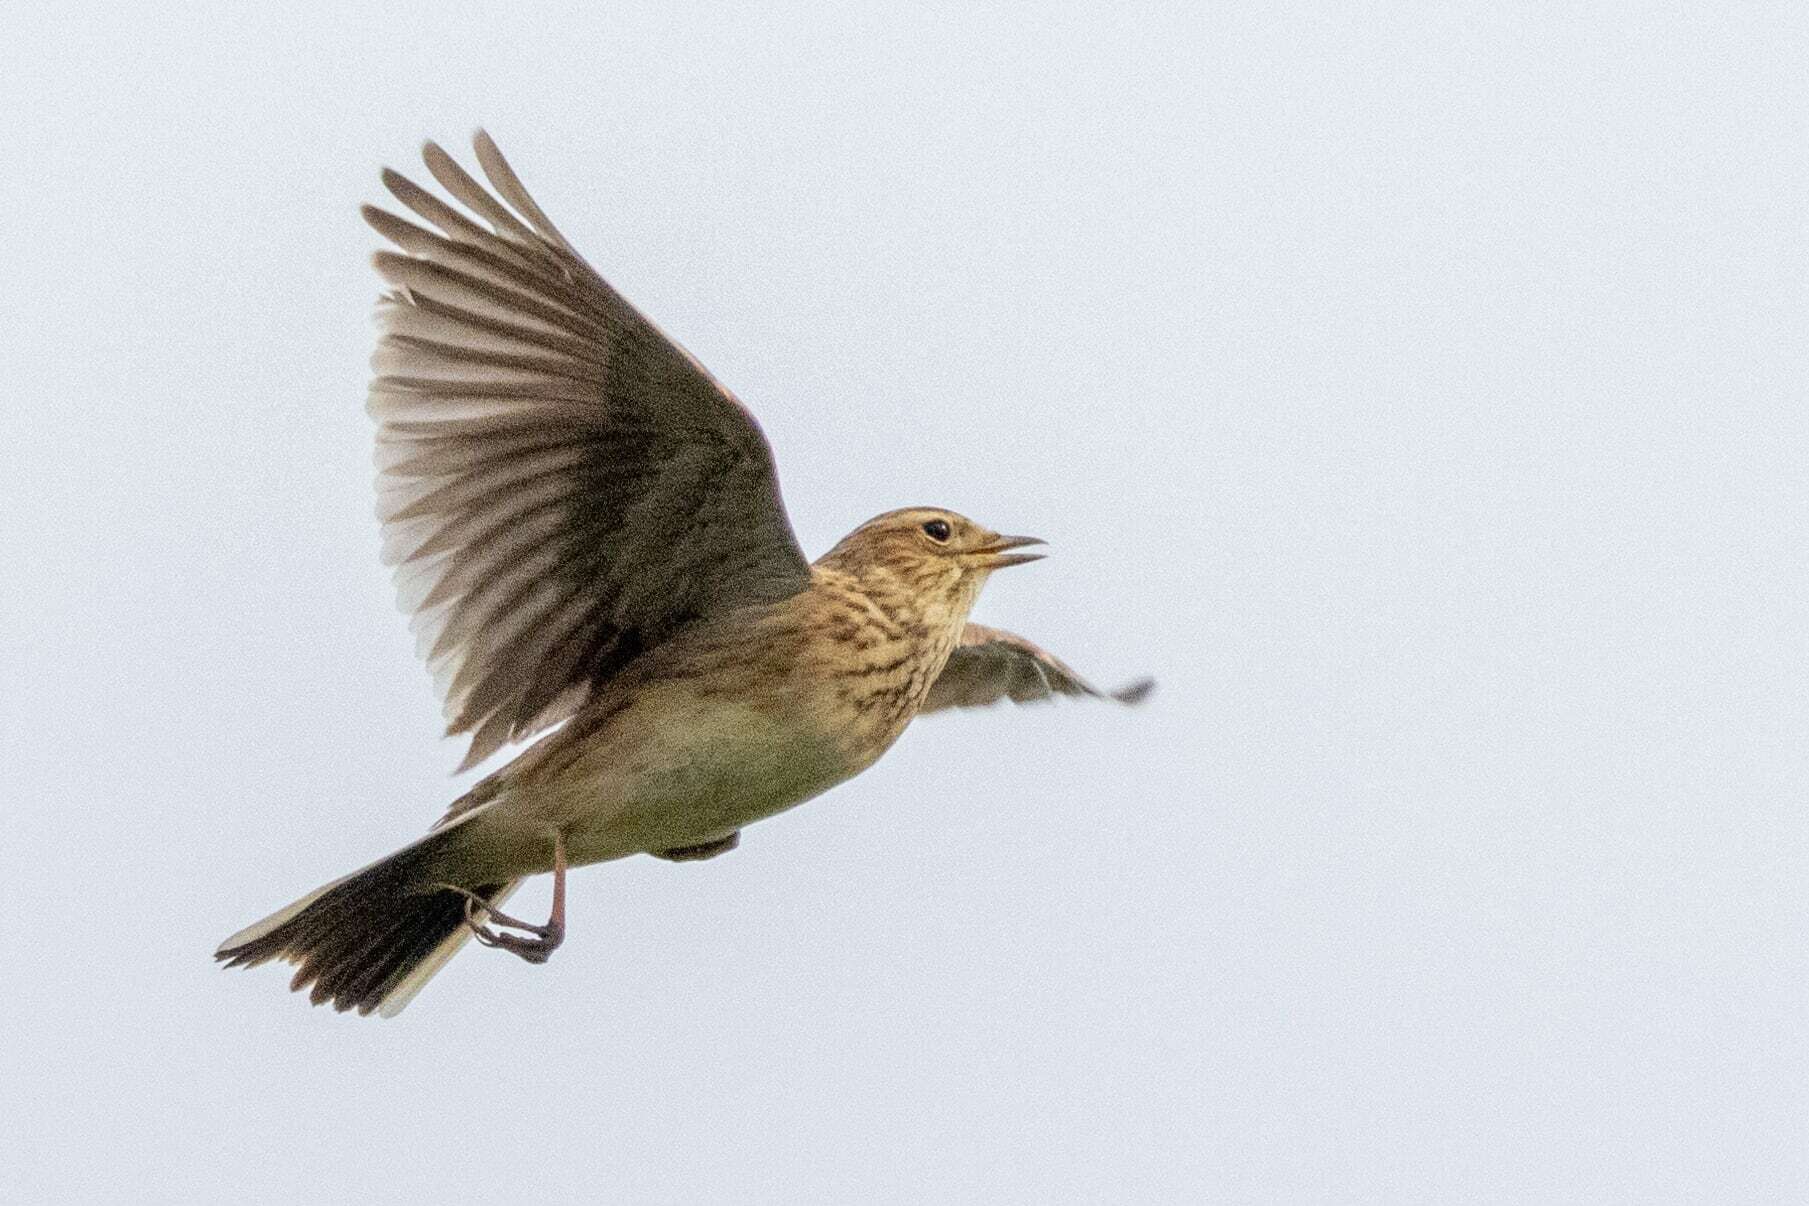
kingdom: Animalia
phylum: Chordata
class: Aves
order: Passeriformes
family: Alaudidae
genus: Alauda
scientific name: Alauda arvensis
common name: Eurasian skylark
